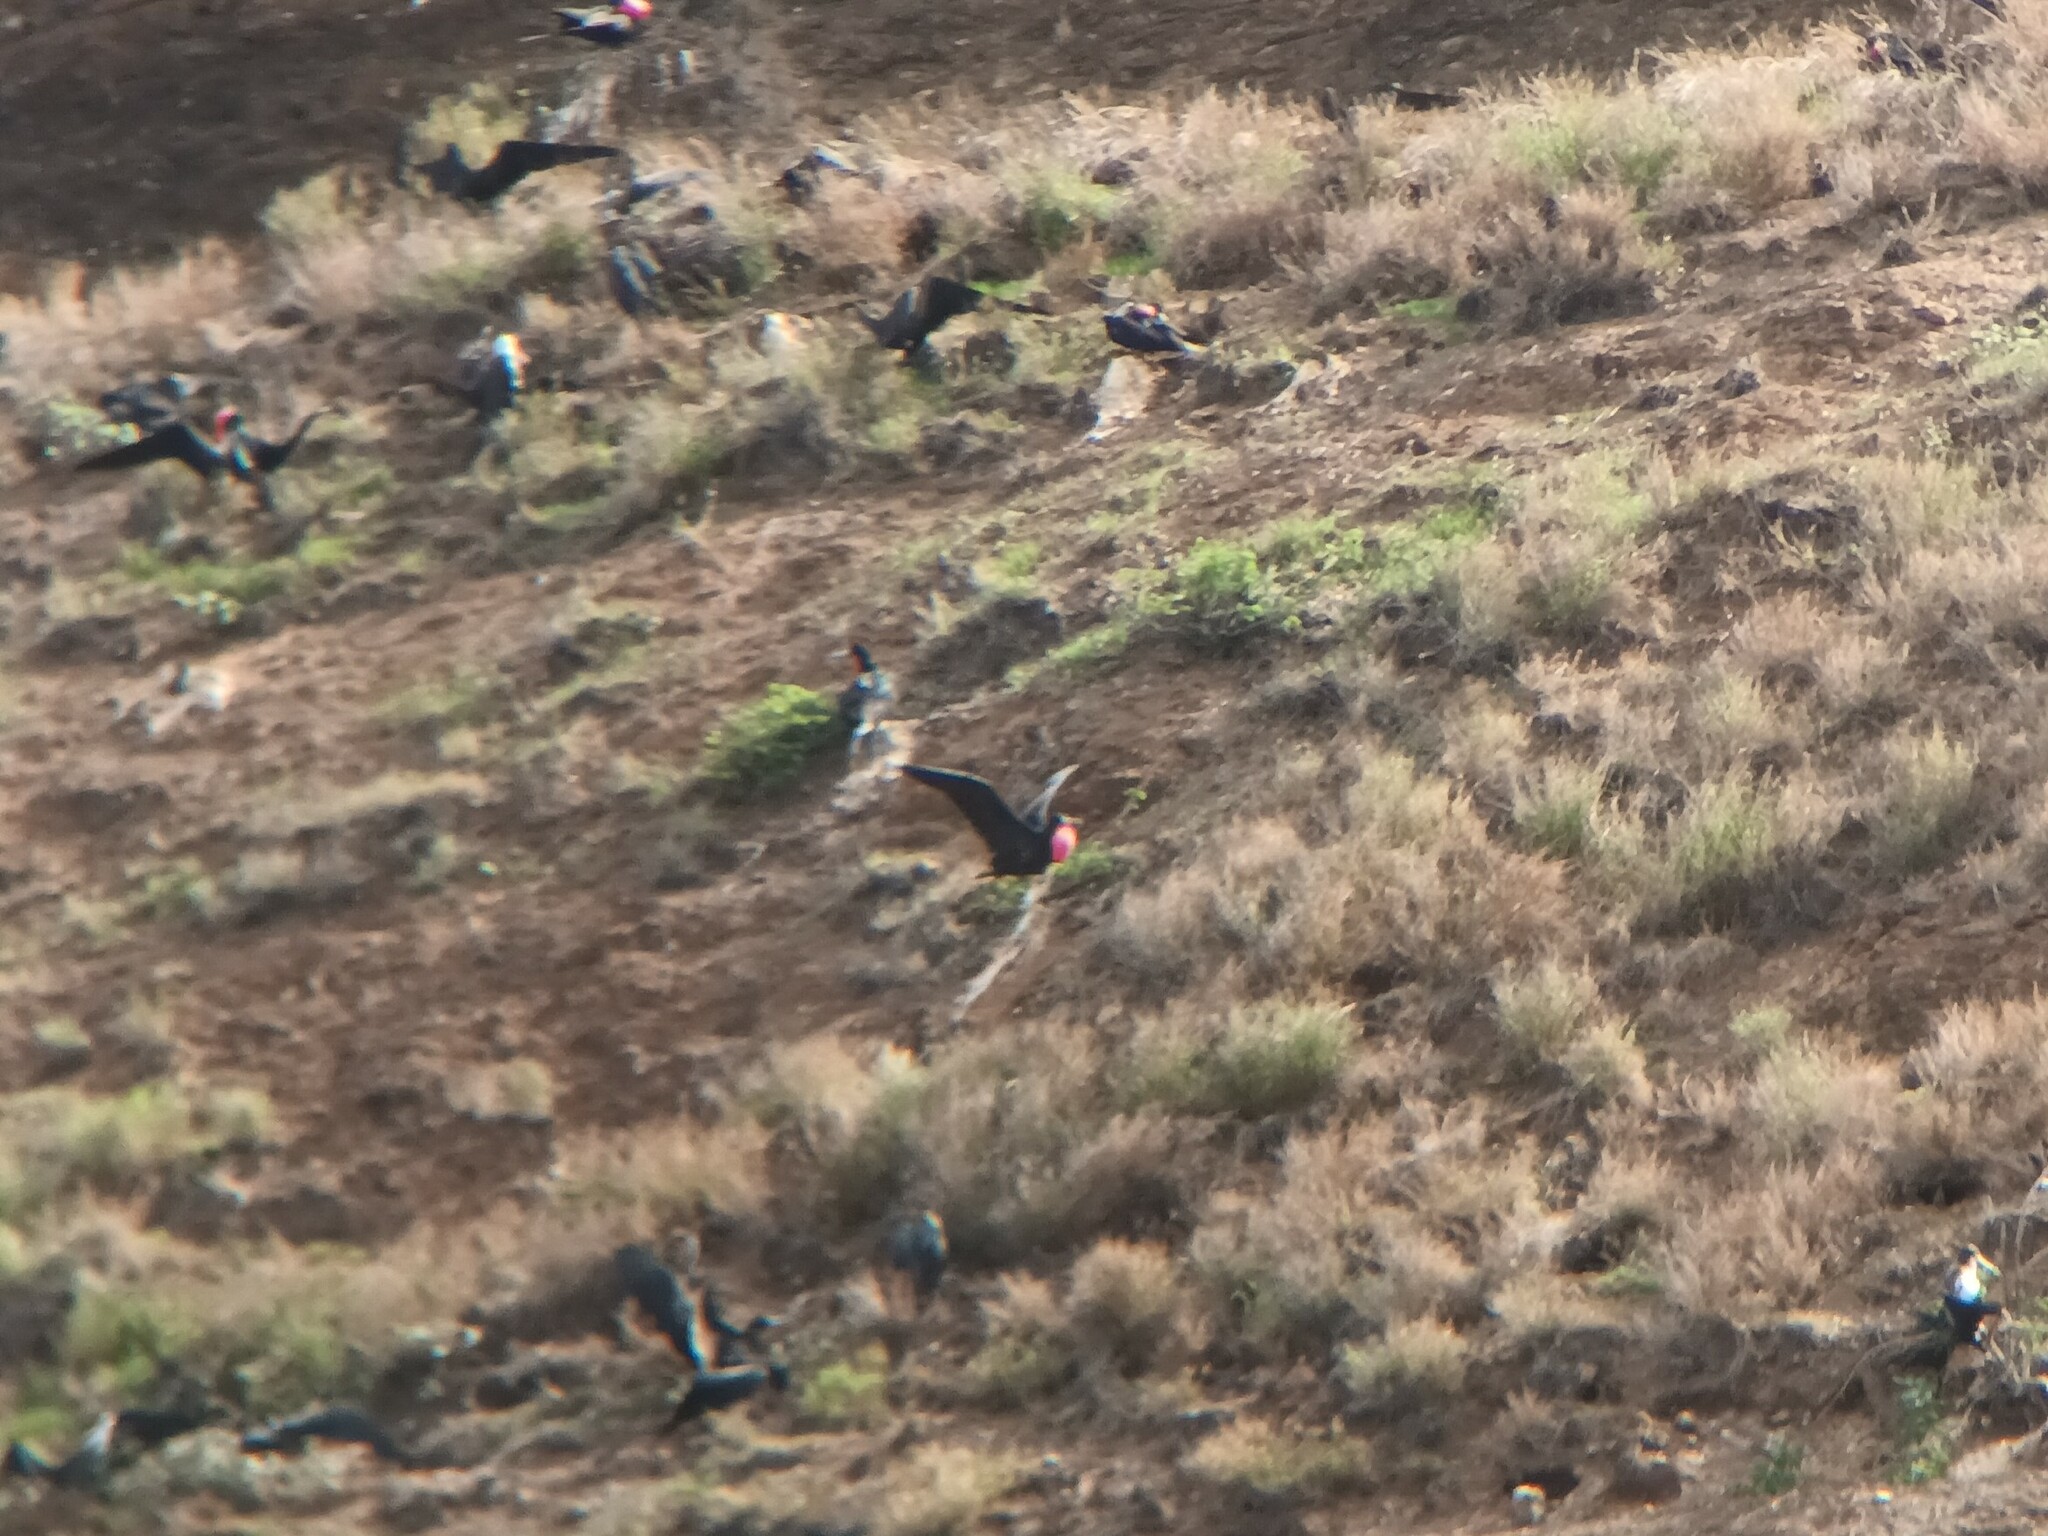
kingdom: Animalia
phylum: Chordata
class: Aves
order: Suliformes
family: Fregatidae
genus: Fregata
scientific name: Fregata minor
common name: Great frigatebird
